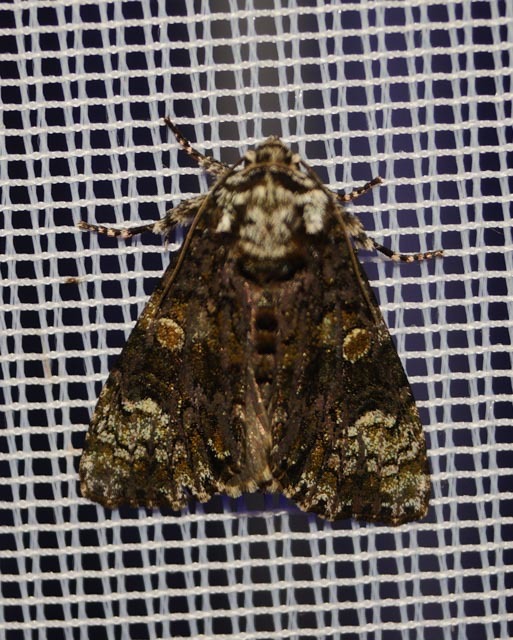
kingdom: Animalia
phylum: Arthropoda
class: Insecta
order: Lepidoptera
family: Noctuidae
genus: Craniophora
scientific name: Craniophora ligustri
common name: Coronet
